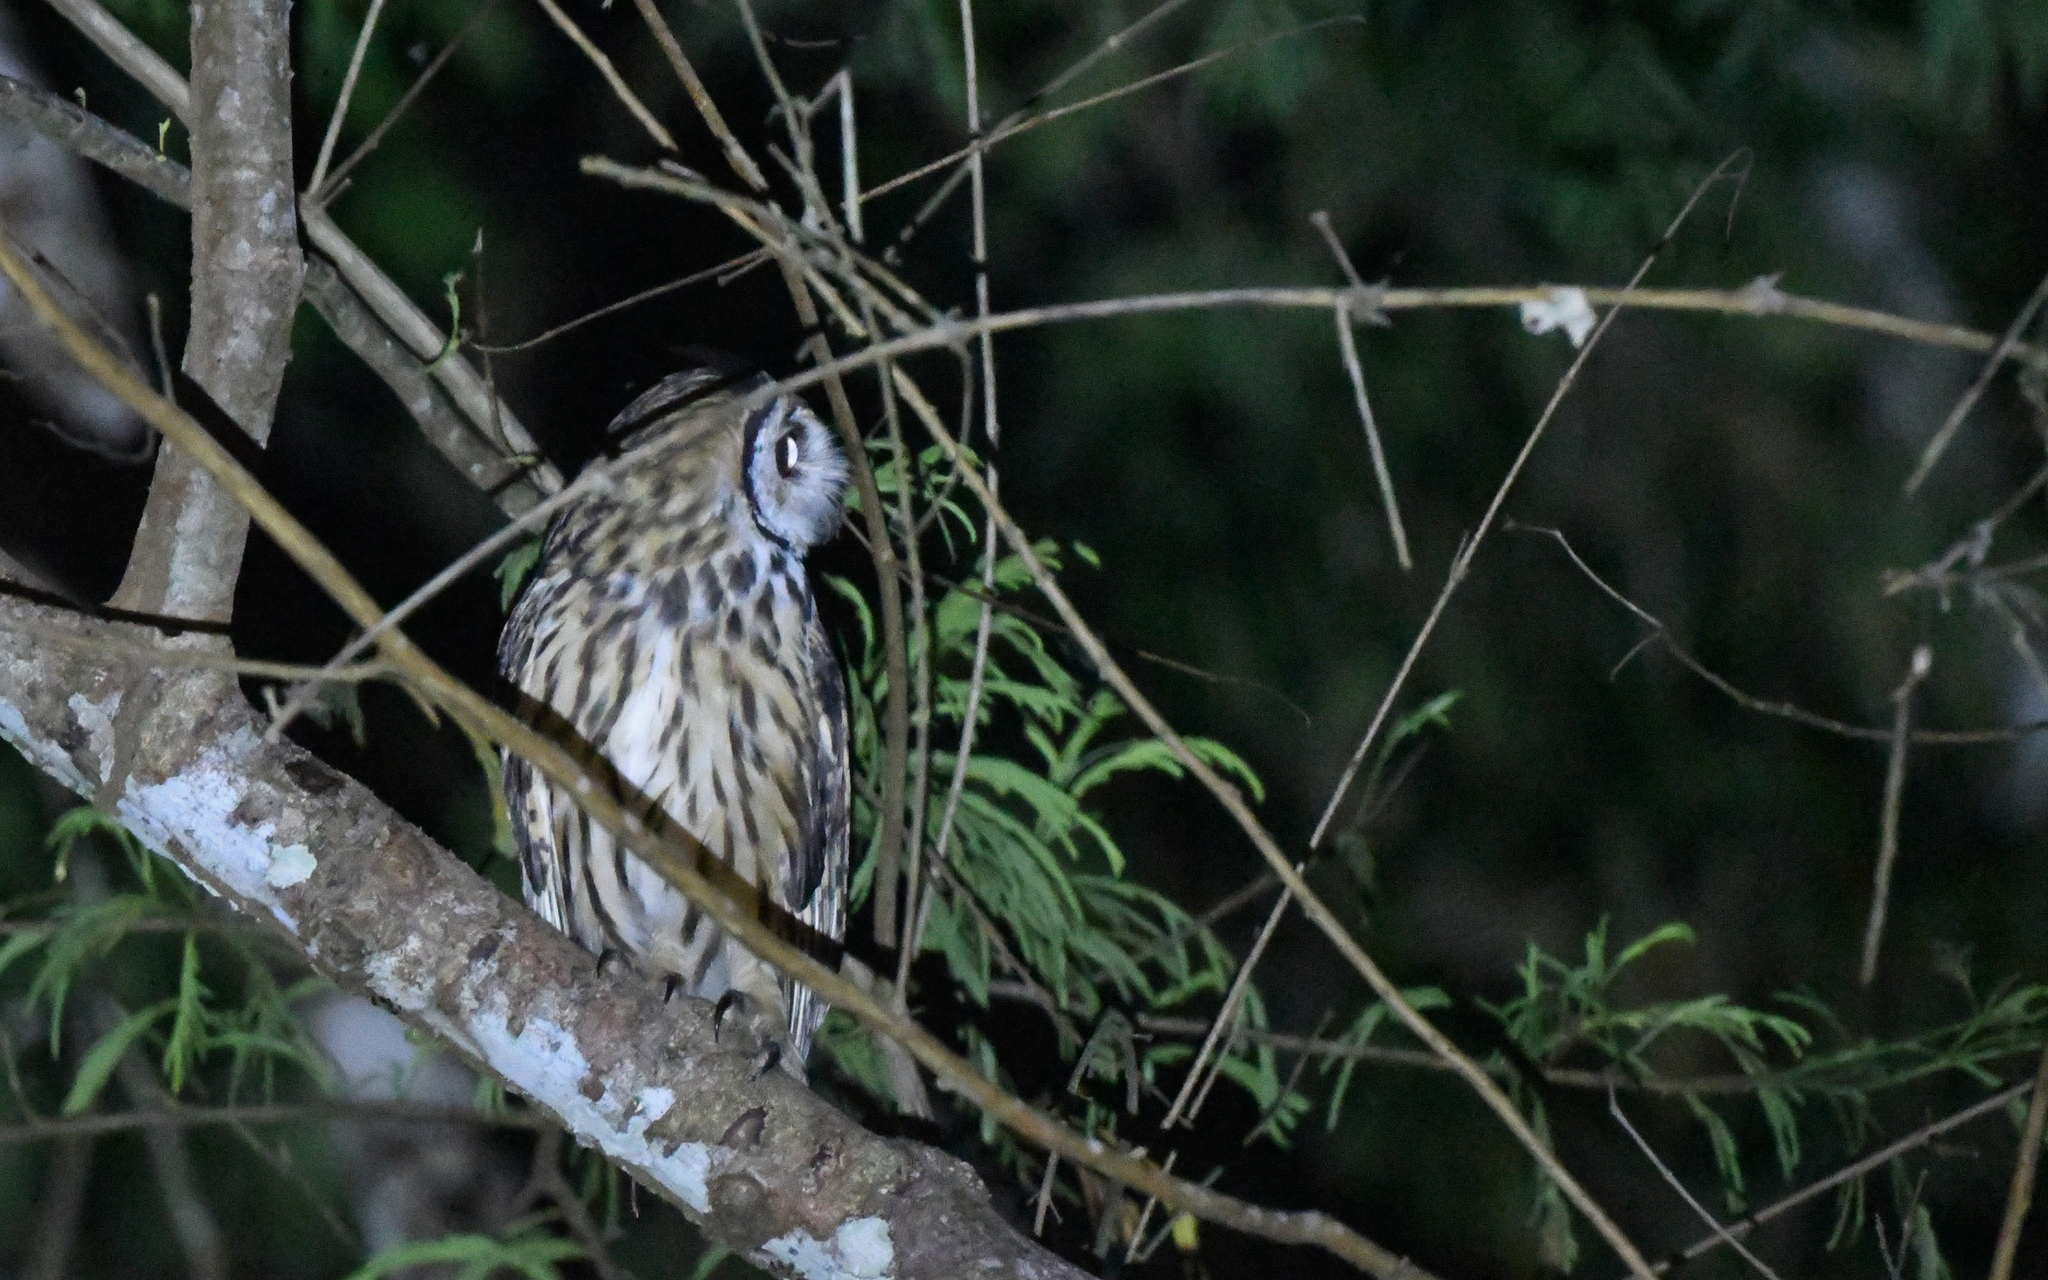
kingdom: Animalia
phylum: Chordata
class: Aves
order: Strigiformes
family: Strigidae
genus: Pseudoscops
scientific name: Pseudoscops clamator
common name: Striped owl
